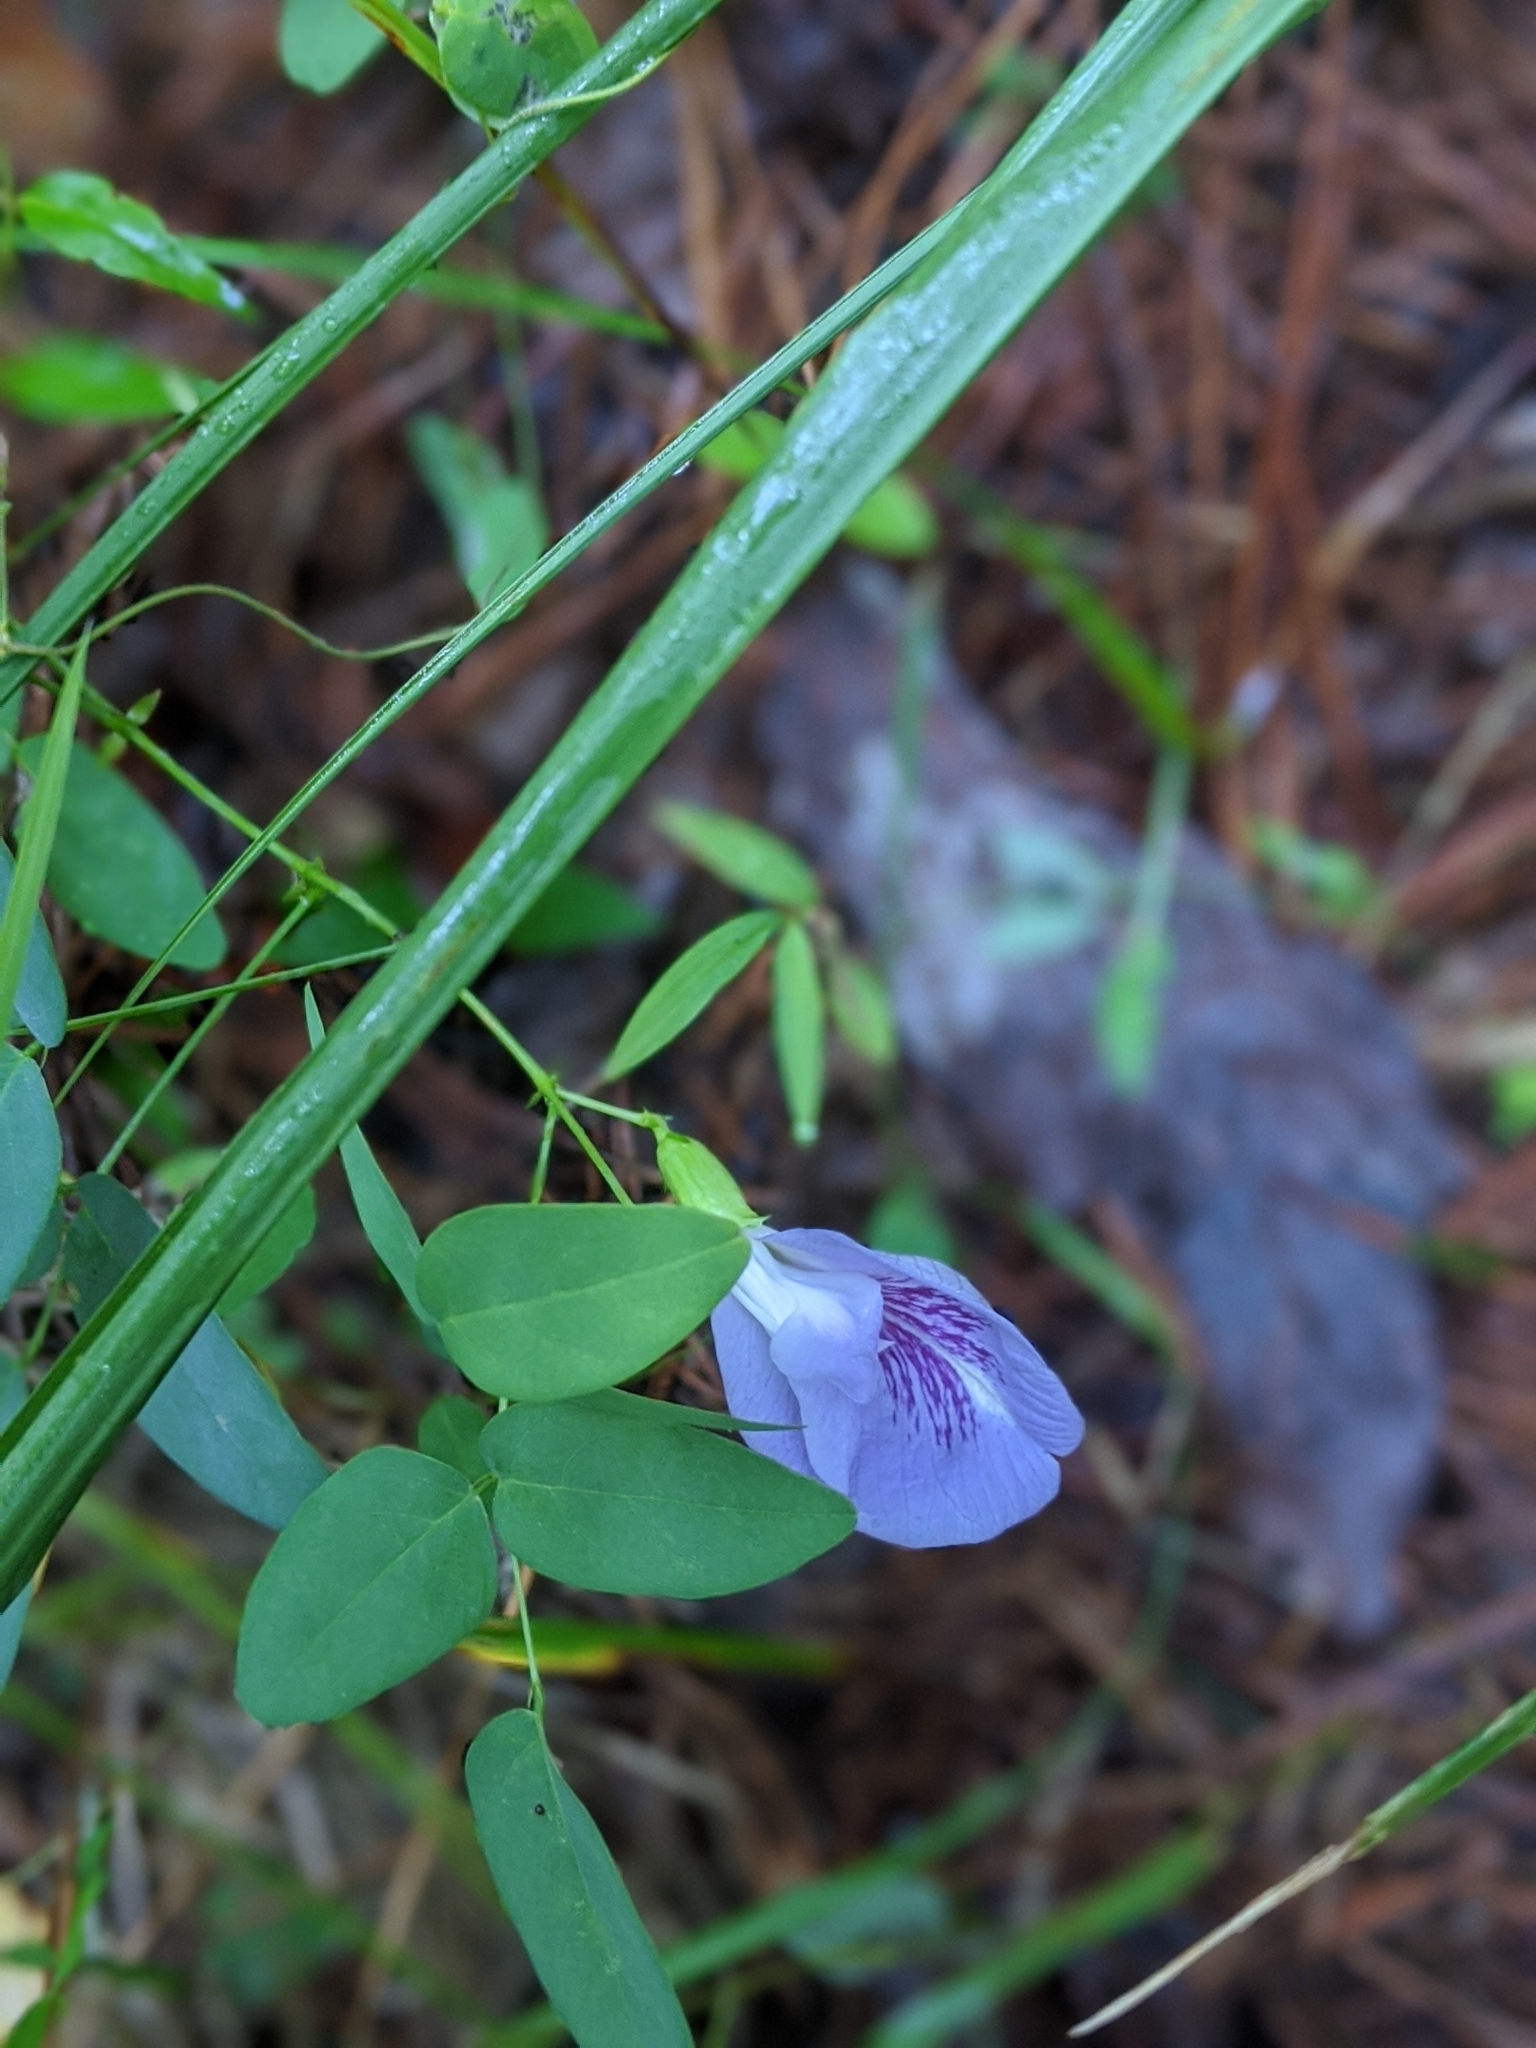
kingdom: Plantae
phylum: Tracheophyta
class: Magnoliopsida
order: Fabales
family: Fabaceae
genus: Clitoria
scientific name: Clitoria mariana
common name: Butterfly-pea
